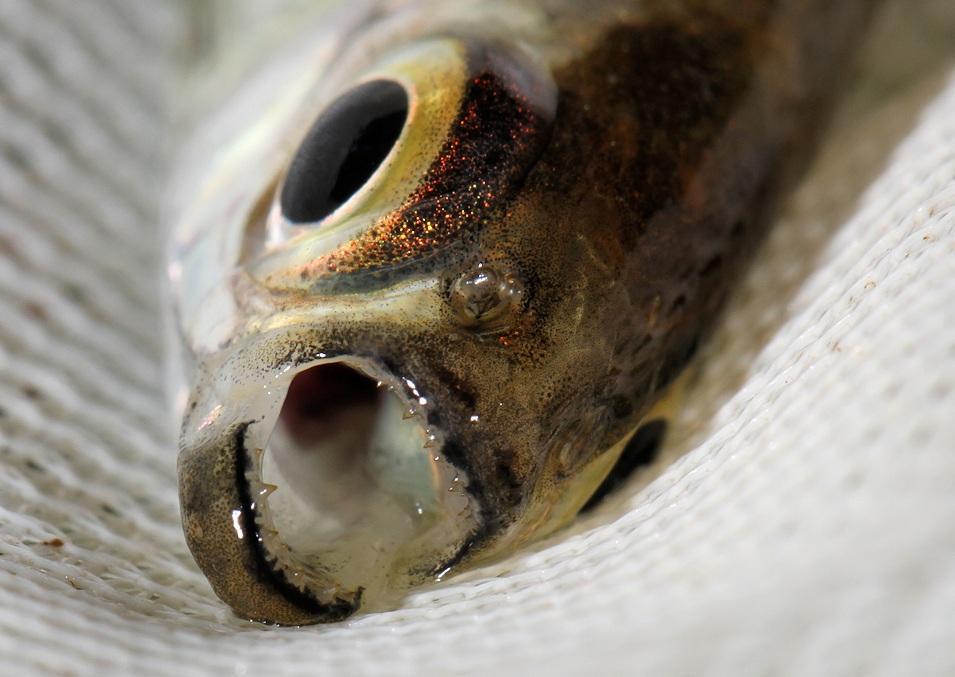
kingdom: Animalia
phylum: Chordata
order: Characiformes
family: Alestidae
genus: Micralestes
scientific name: Micralestes acutidens
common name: Silver robber
